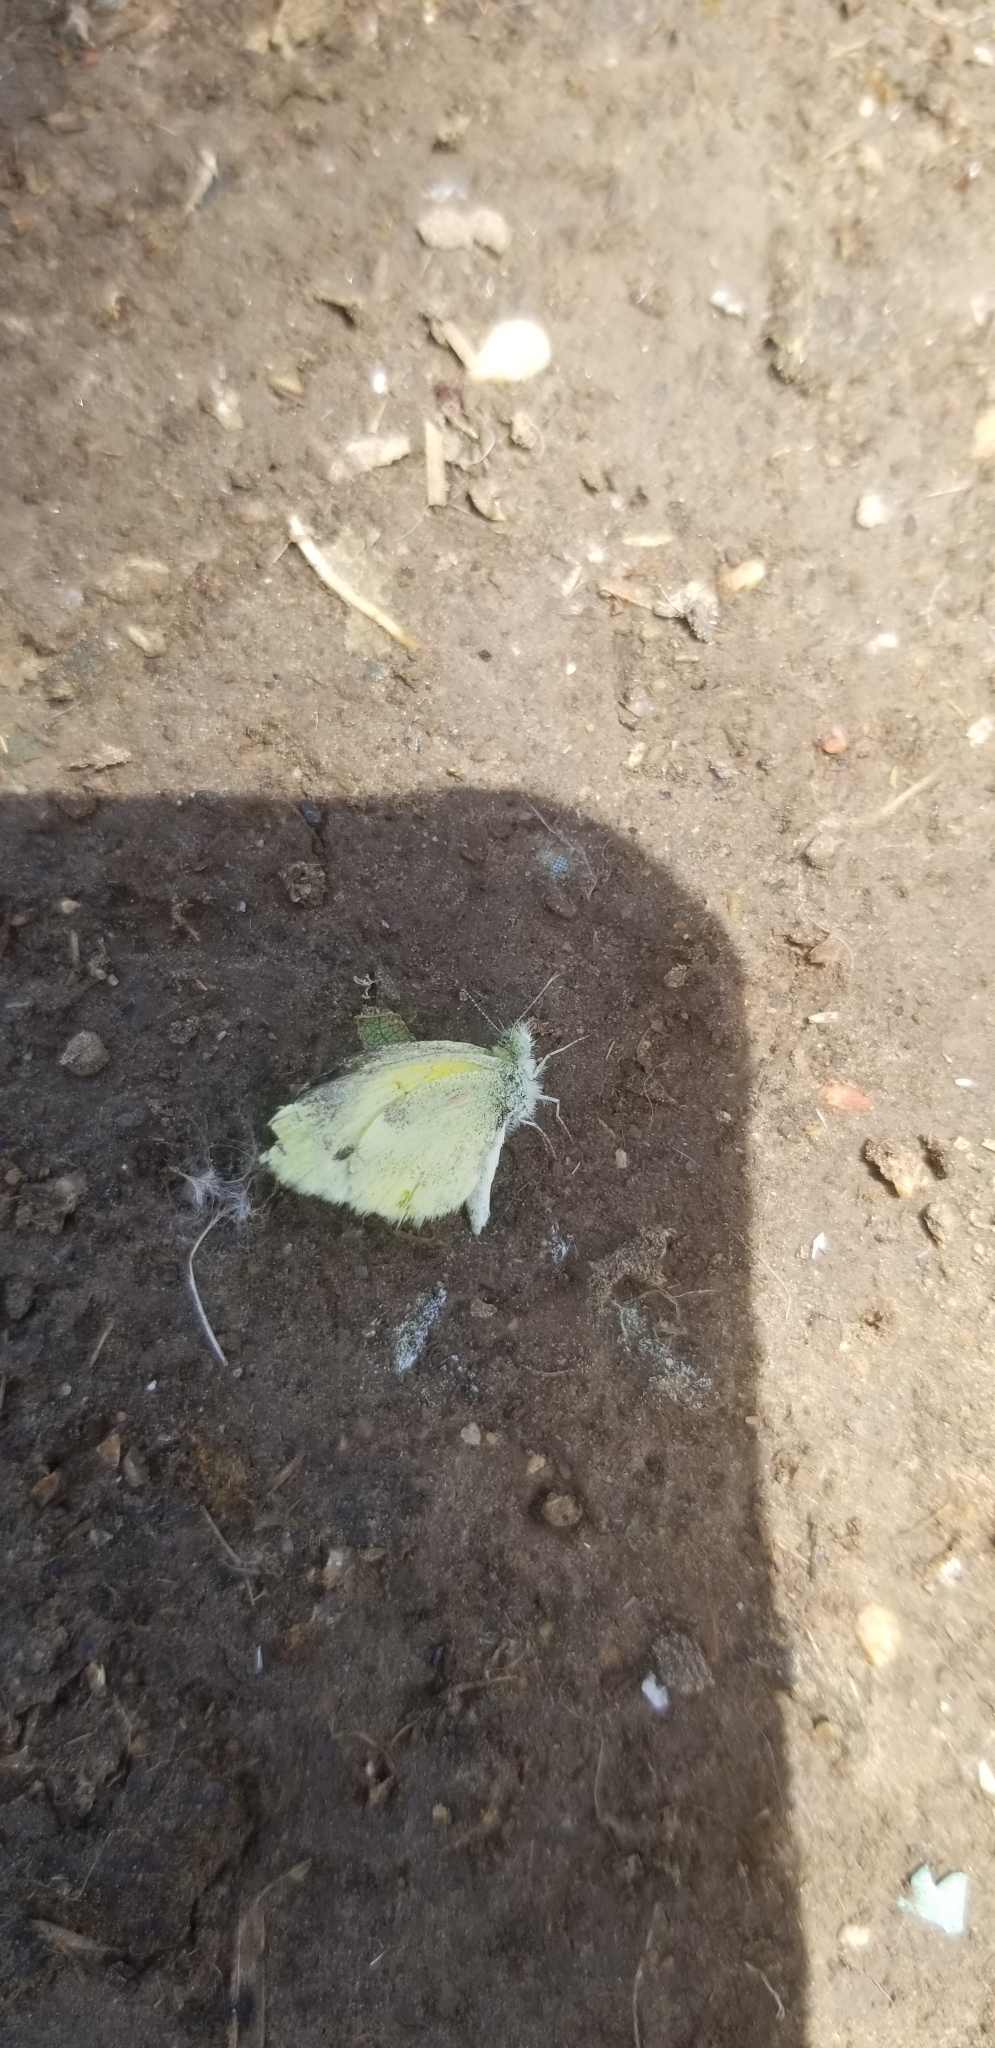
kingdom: Animalia
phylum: Arthropoda
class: Insecta
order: Lepidoptera
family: Pieridae
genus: Nathalis
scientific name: Nathalis iole
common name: Dainty sulphur
